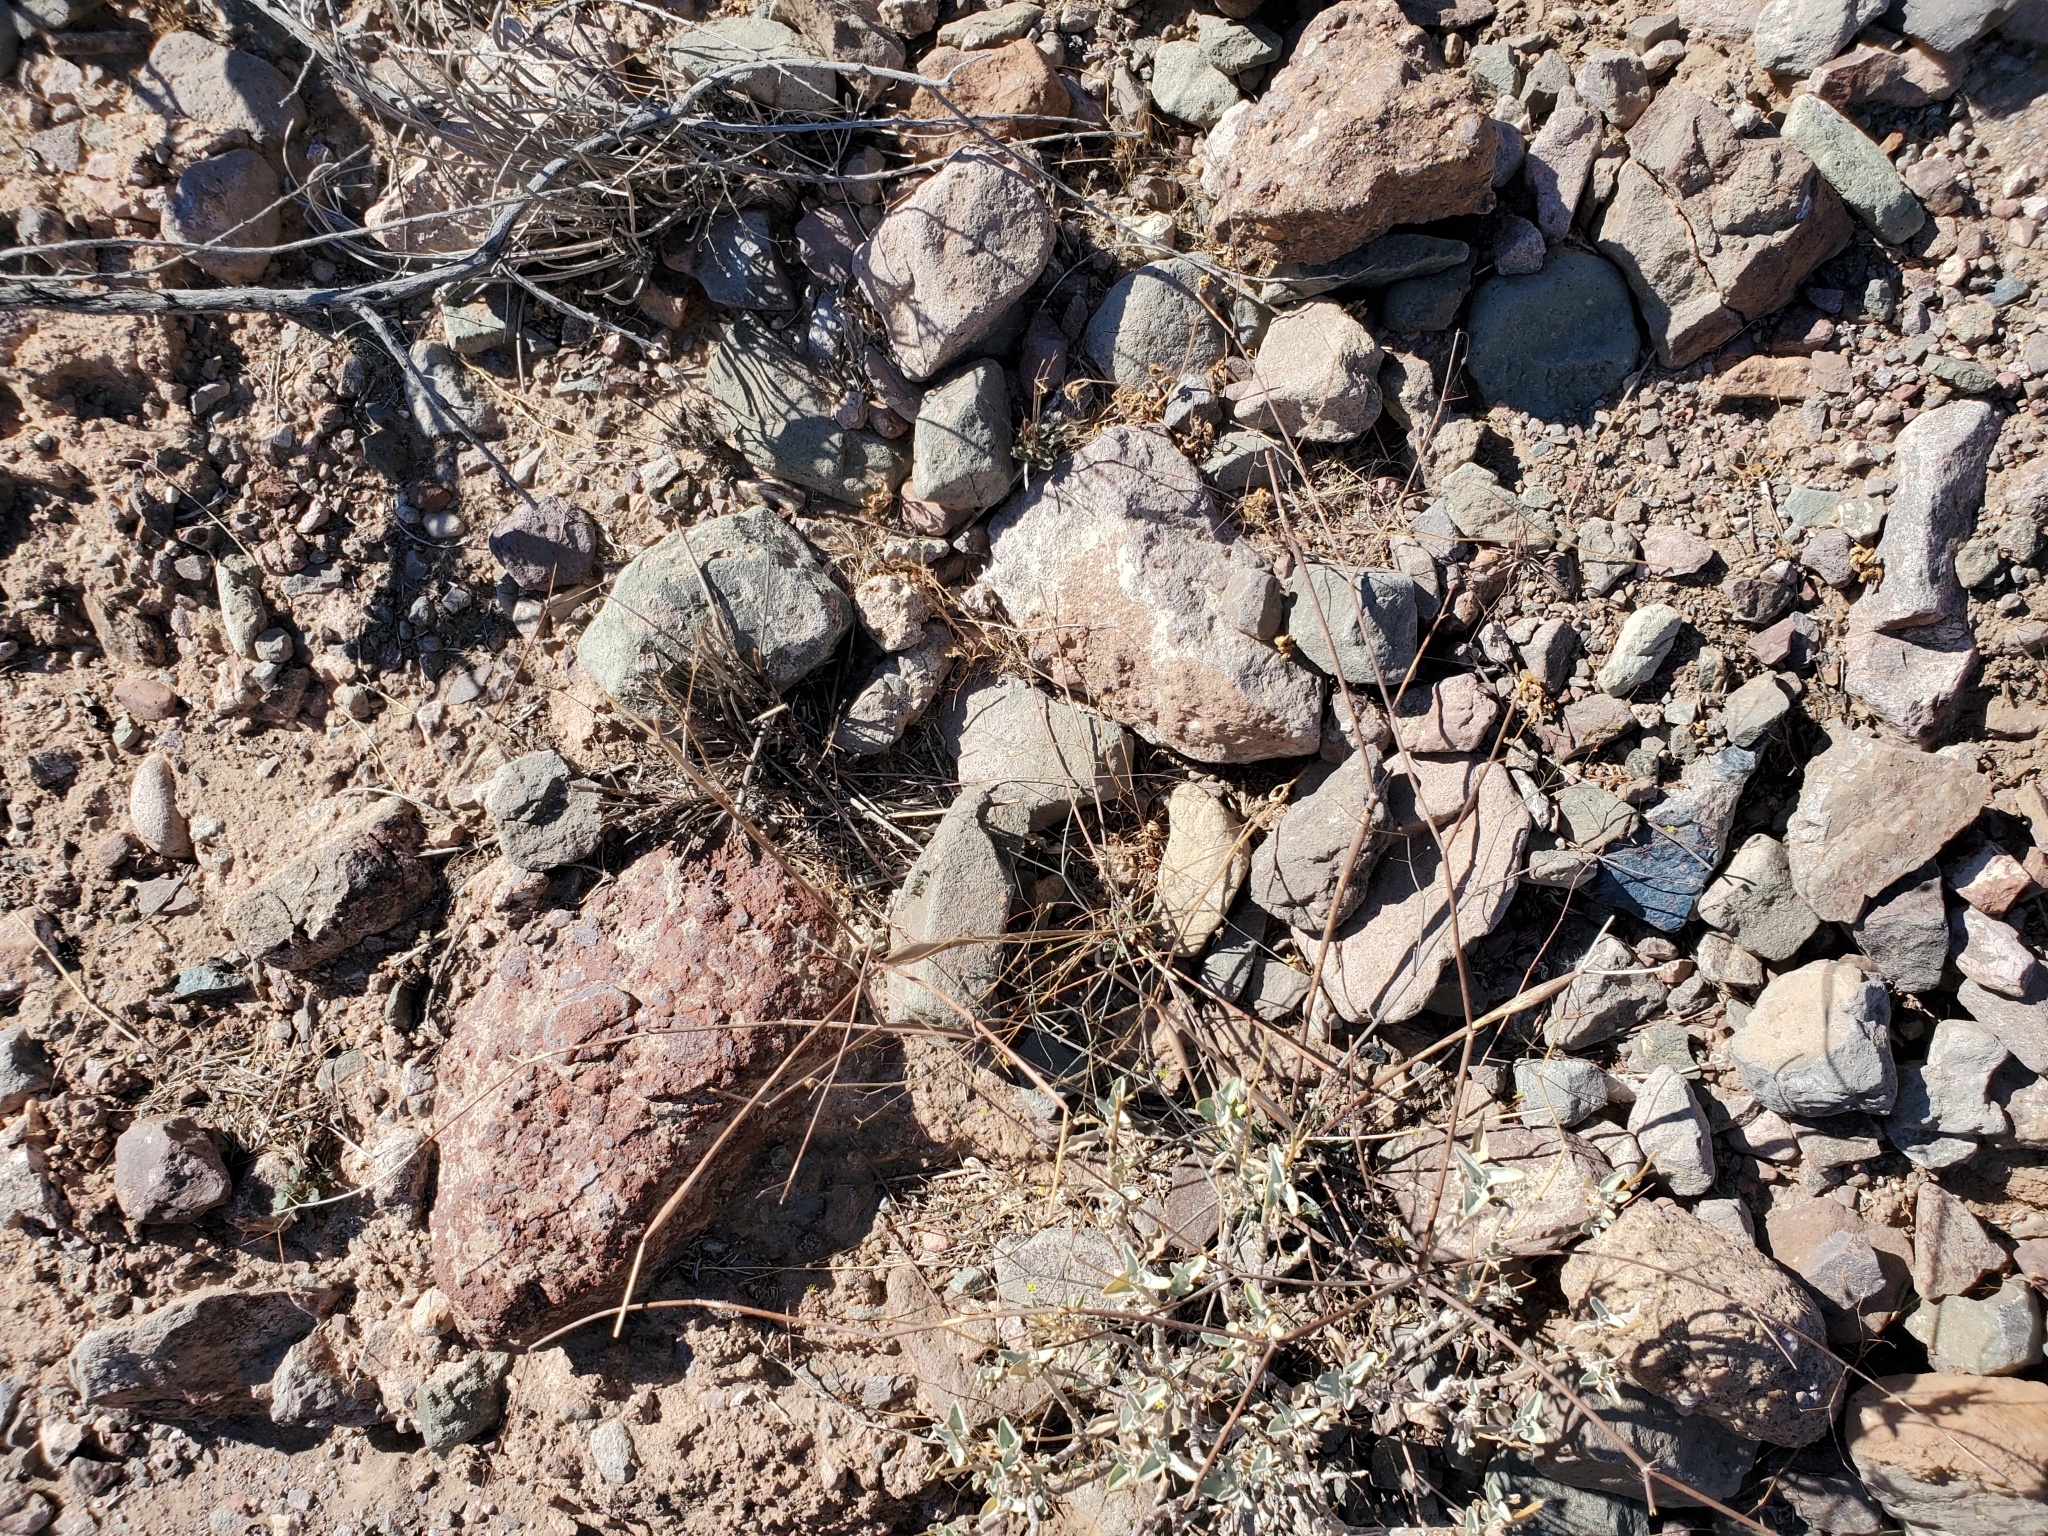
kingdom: Plantae
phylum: Tracheophyta
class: Magnoliopsida
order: Caryophyllales
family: Polygonaceae
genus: Eriogonum
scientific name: Eriogonum inflatum
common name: Desert trumpet
